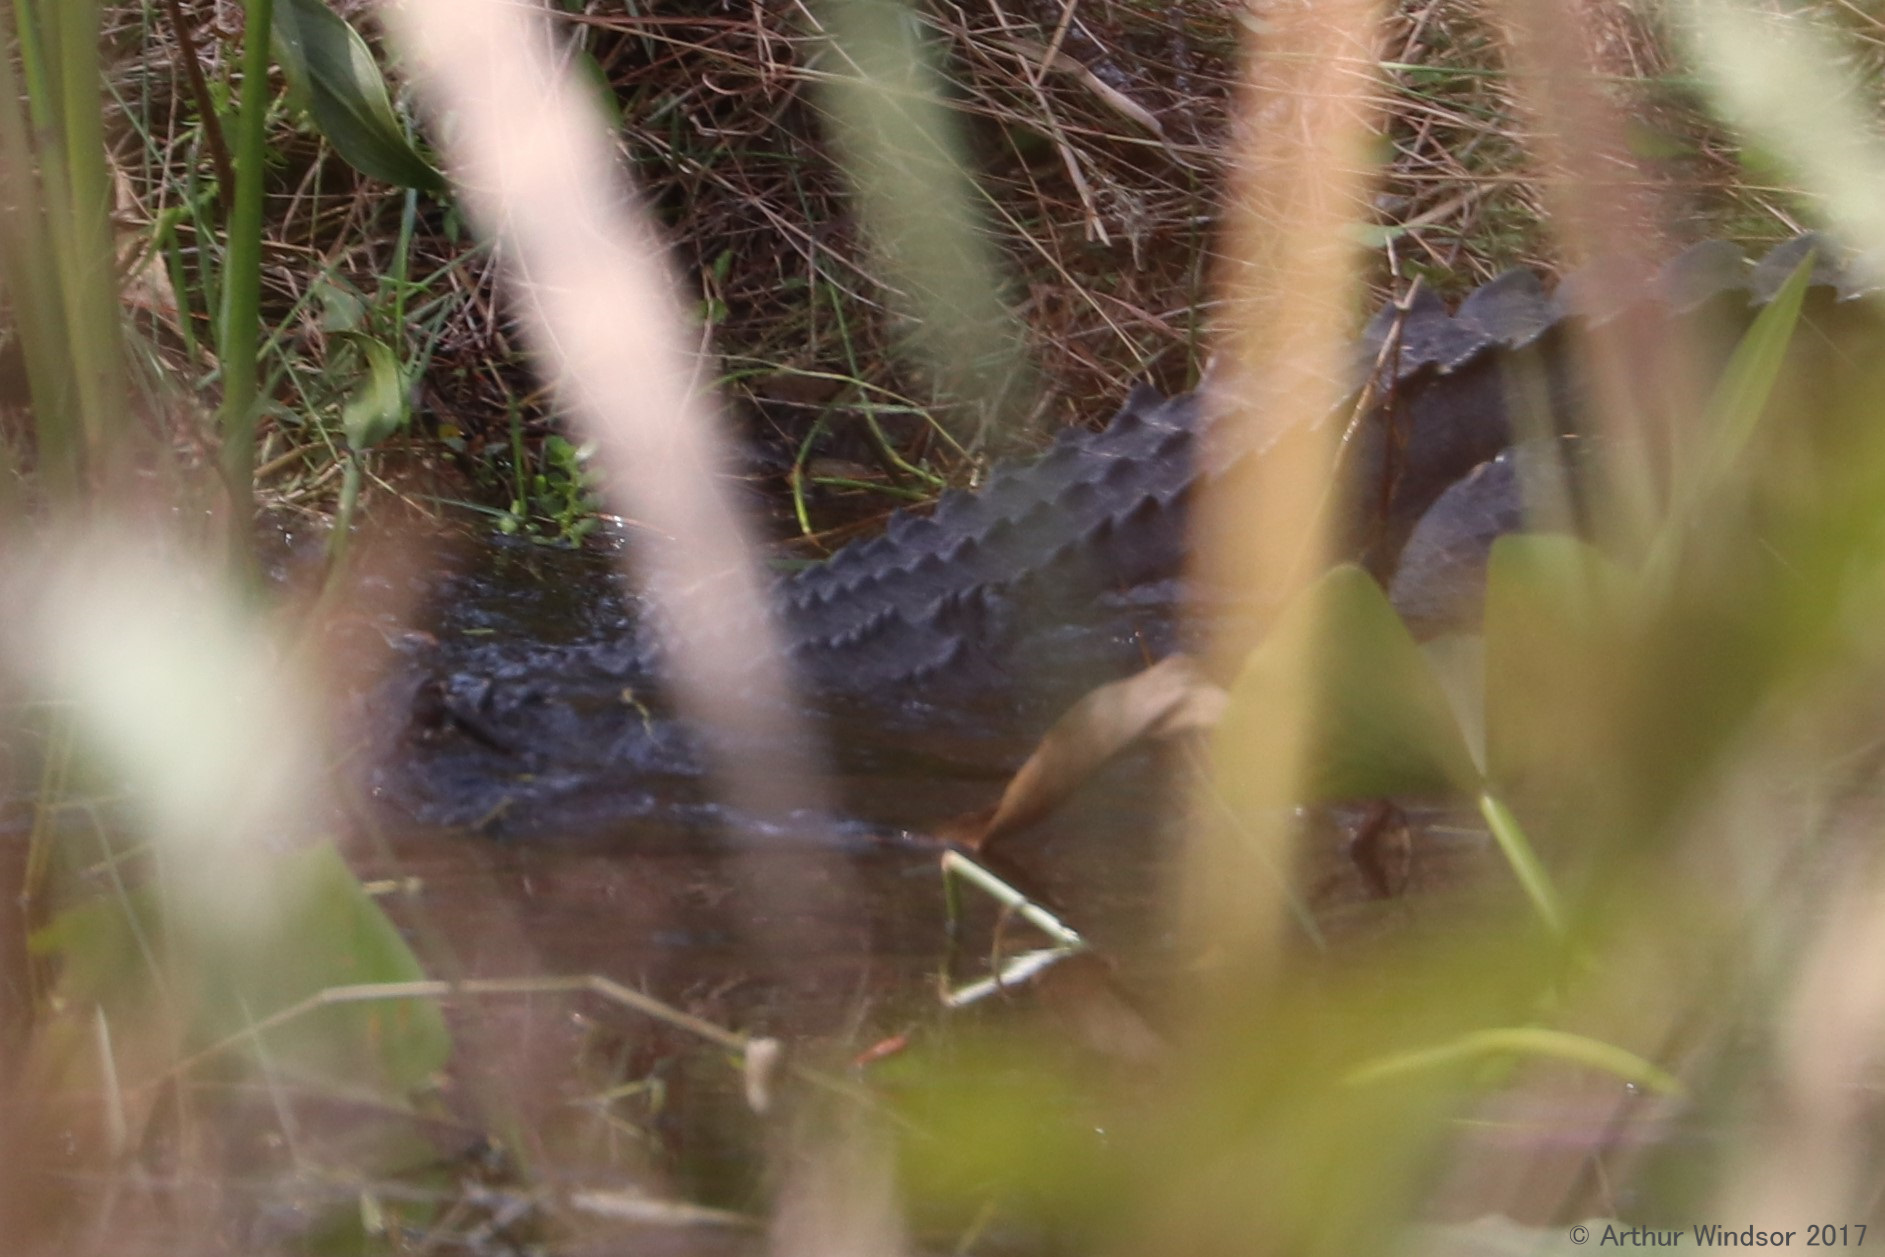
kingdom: Animalia
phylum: Chordata
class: Crocodylia
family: Alligatoridae
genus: Alligator
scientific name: Alligator mississippiensis
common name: American alligator
